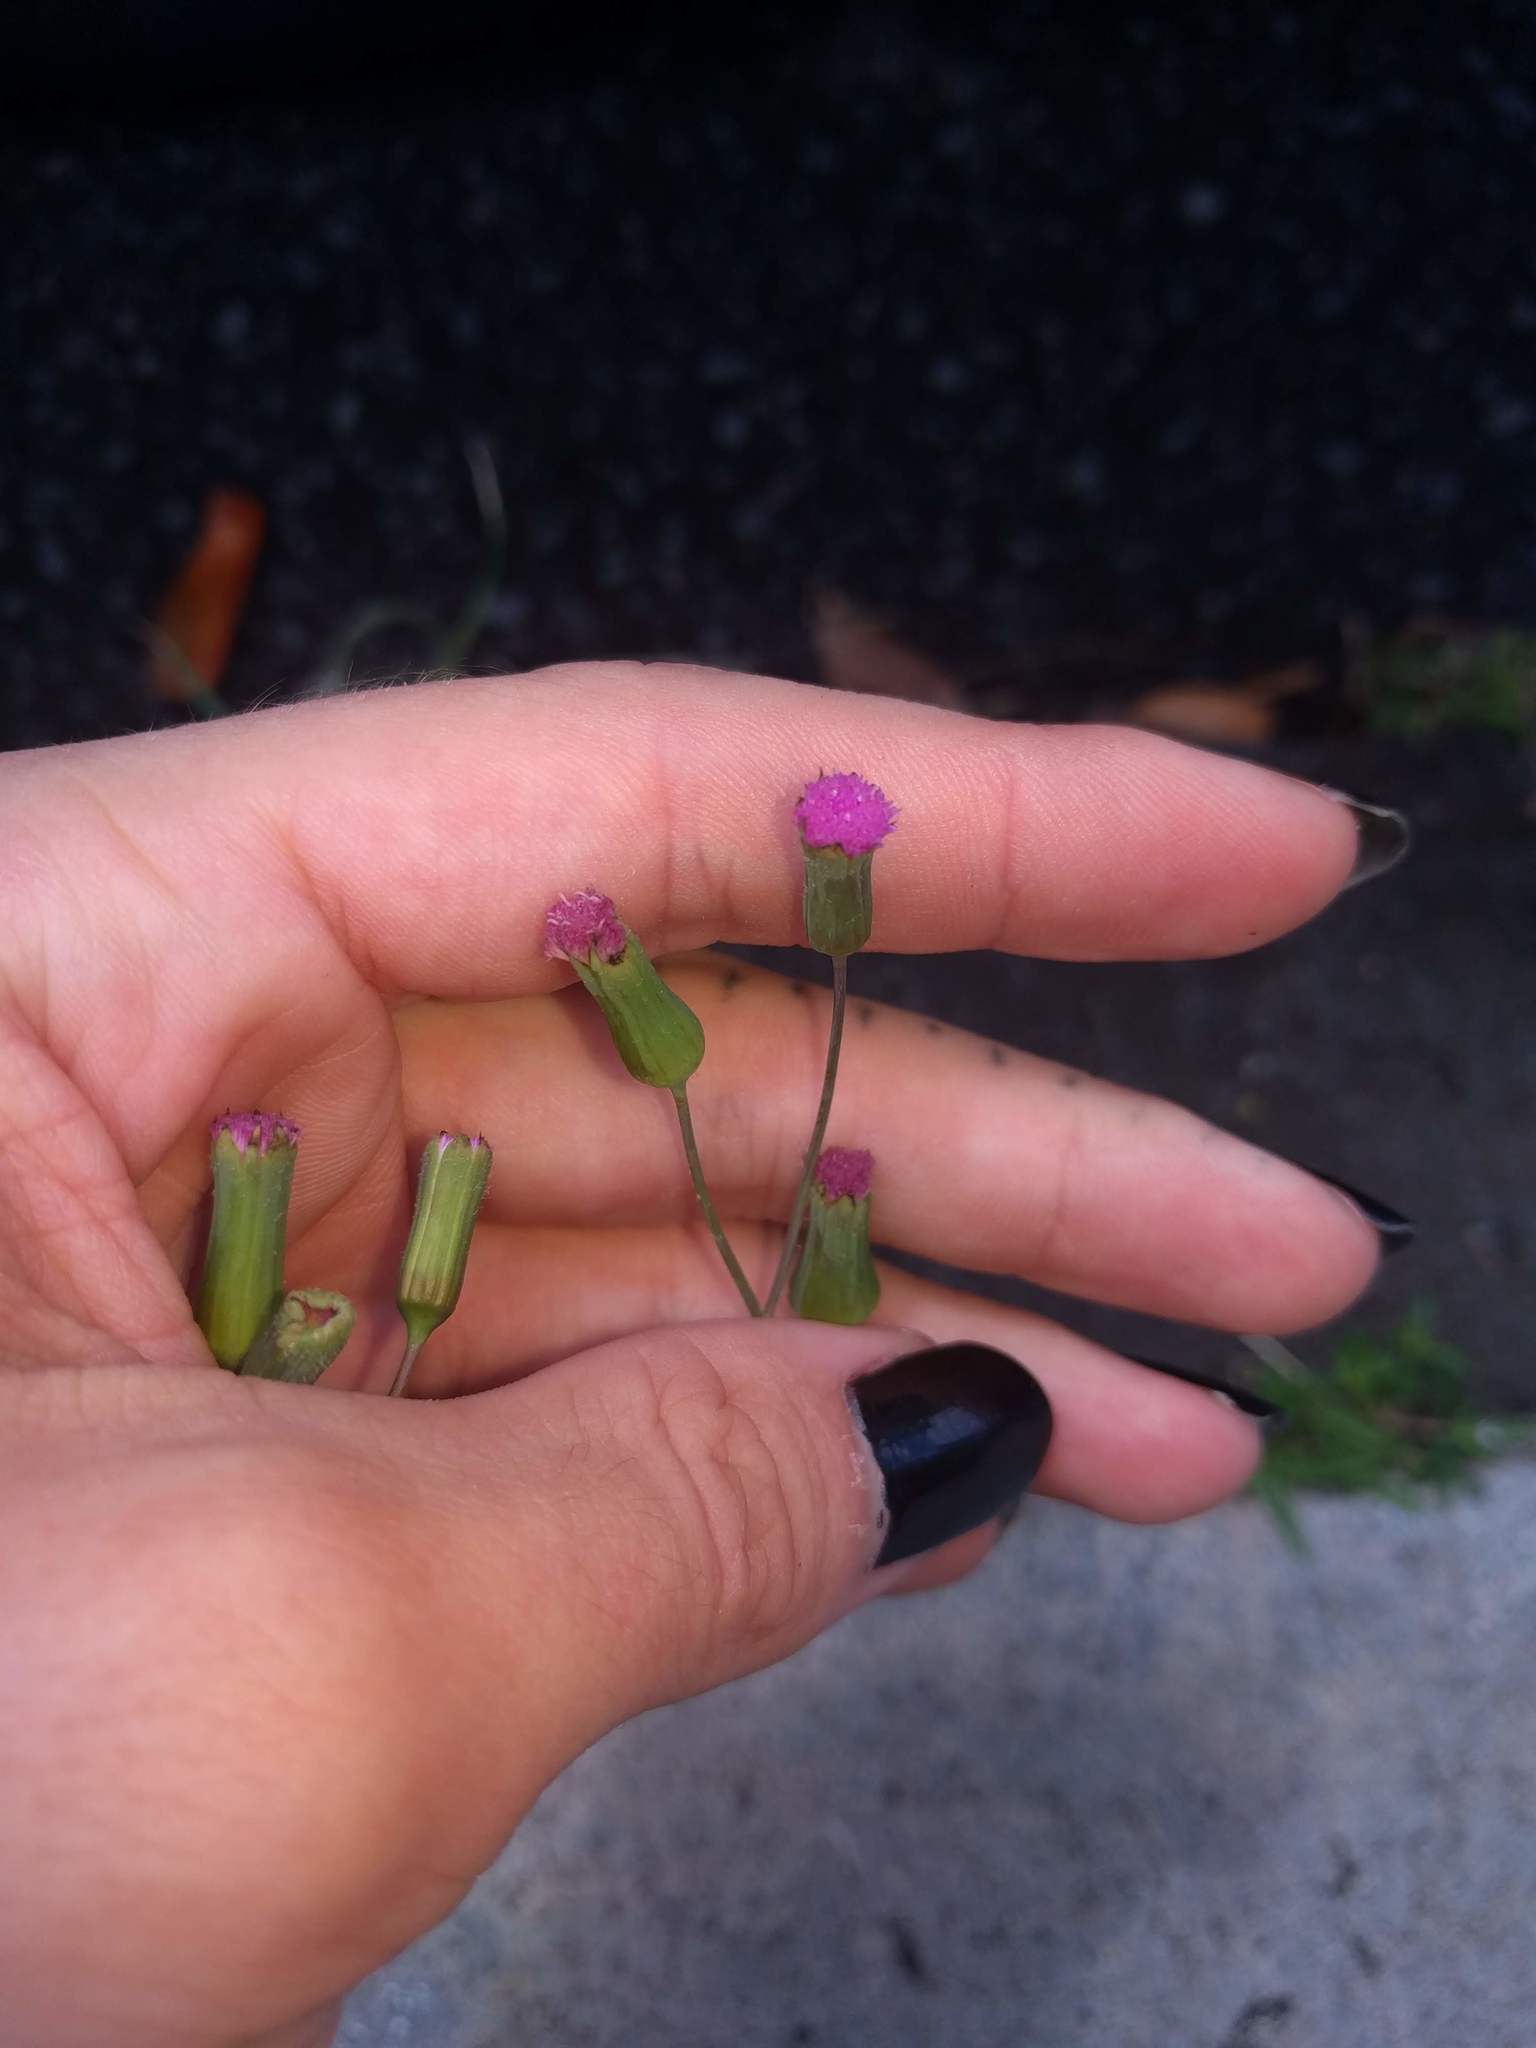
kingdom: Plantae
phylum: Tracheophyta
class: Magnoliopsida
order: Asterales
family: Asteraceae
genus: Emilia
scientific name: Emilia sonchifolia
